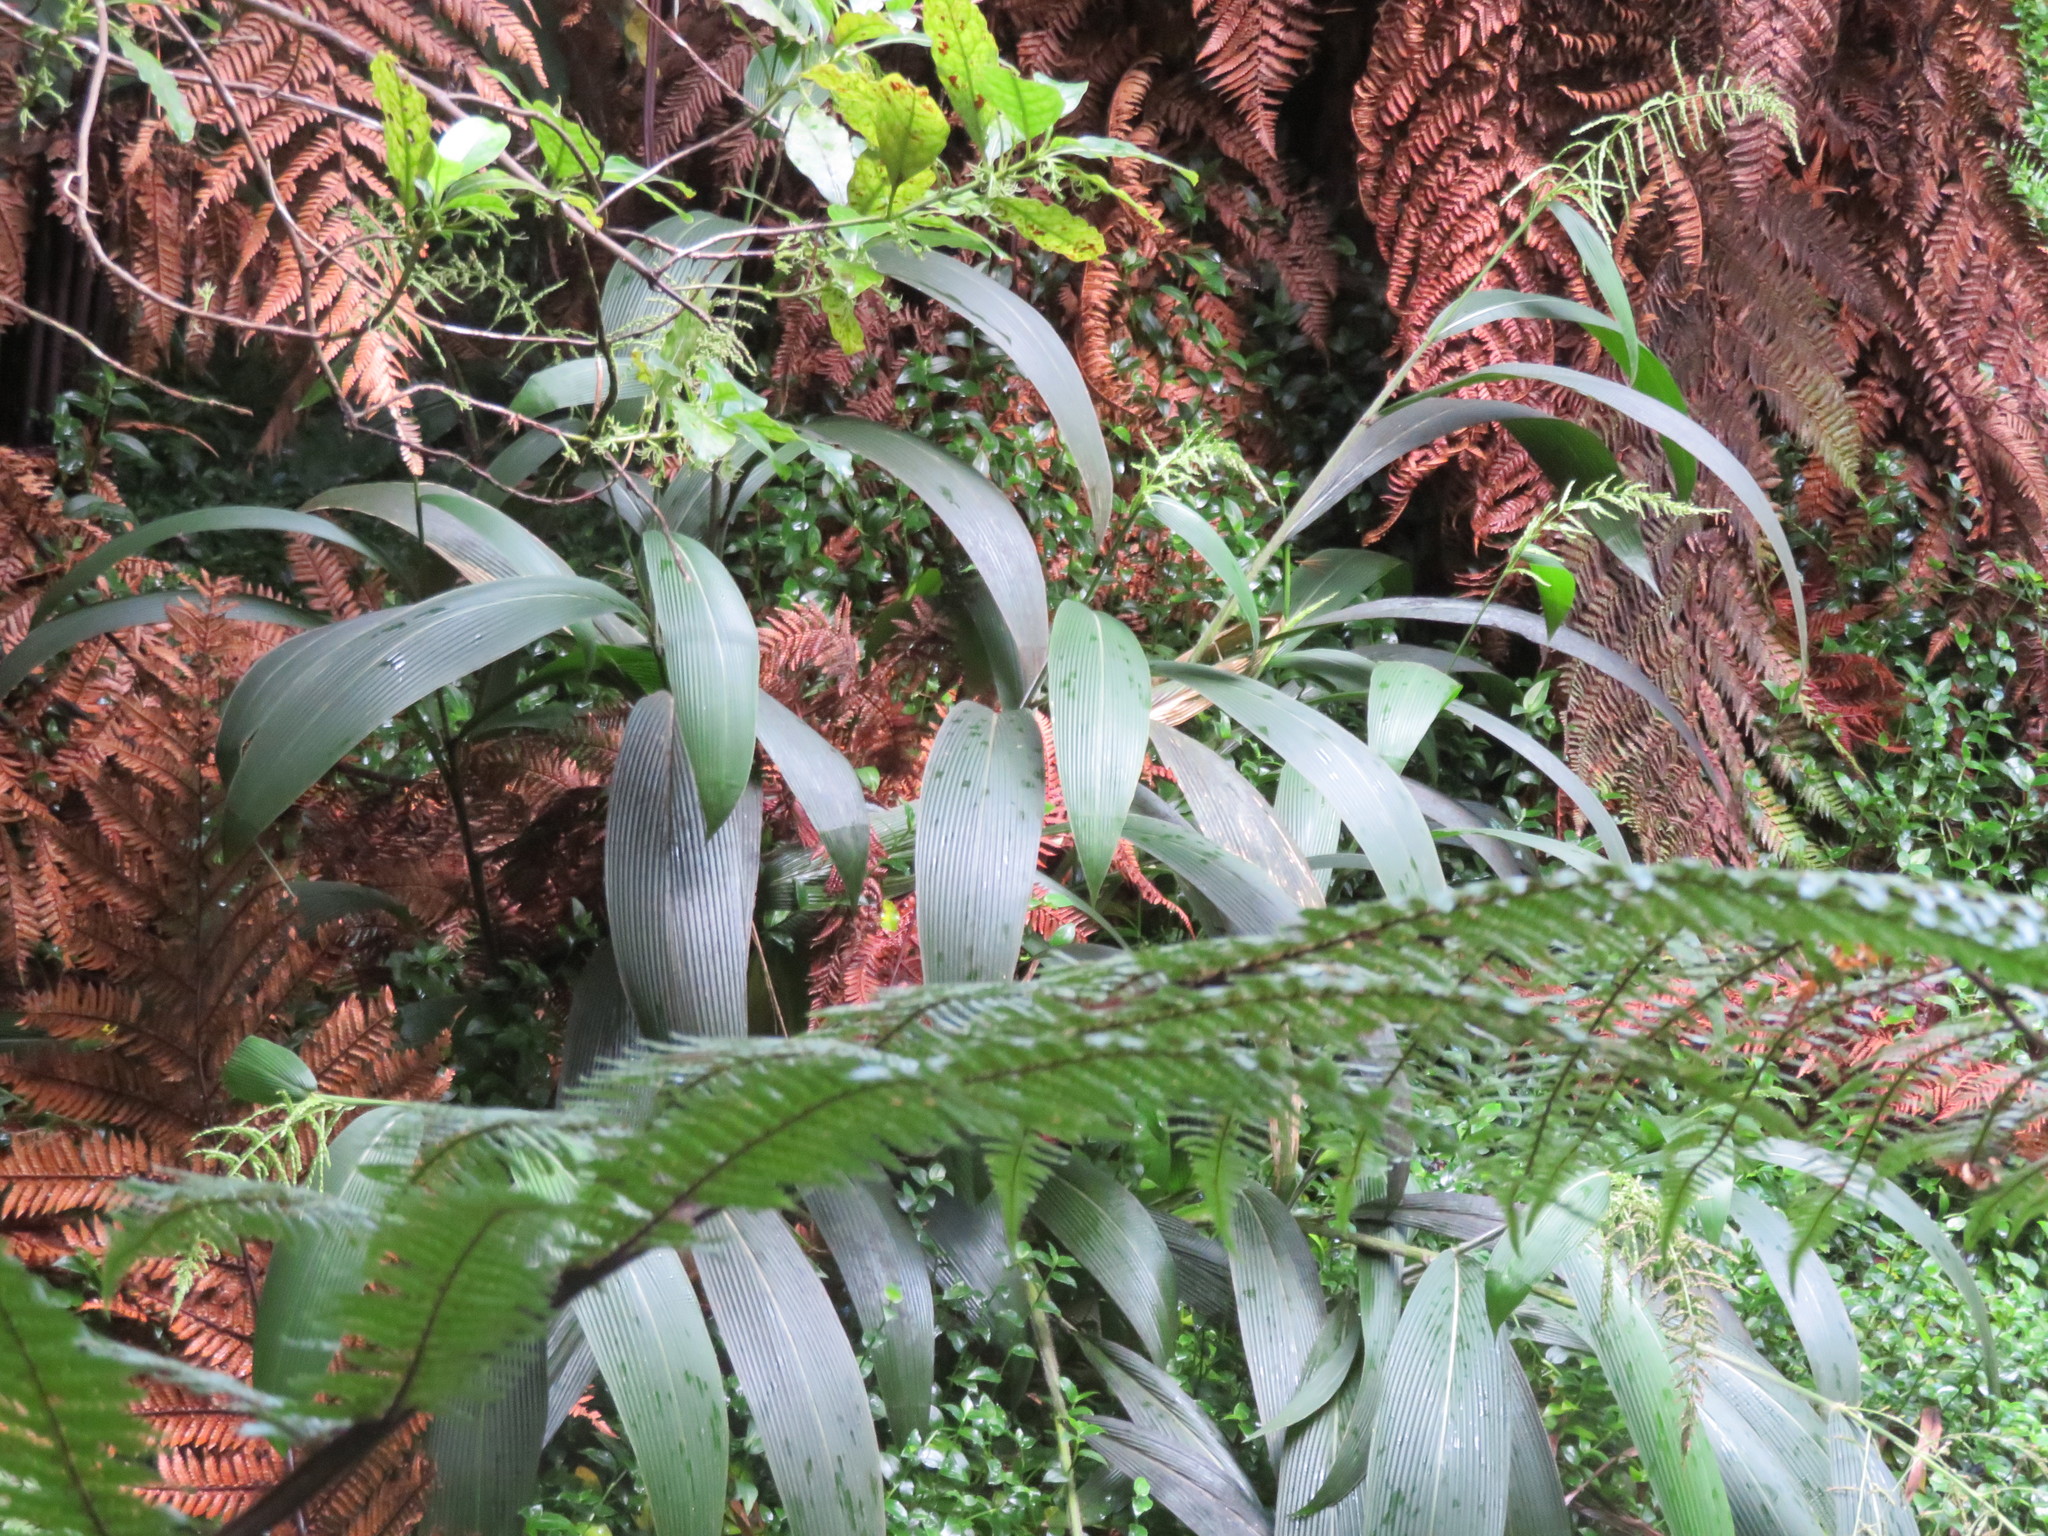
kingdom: Plantae
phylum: Tracheophyta
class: Liliopsida
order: Poales
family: Poaceae
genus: Setaria
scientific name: Setaria palmifolia
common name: Broadleaved bristlegrass
